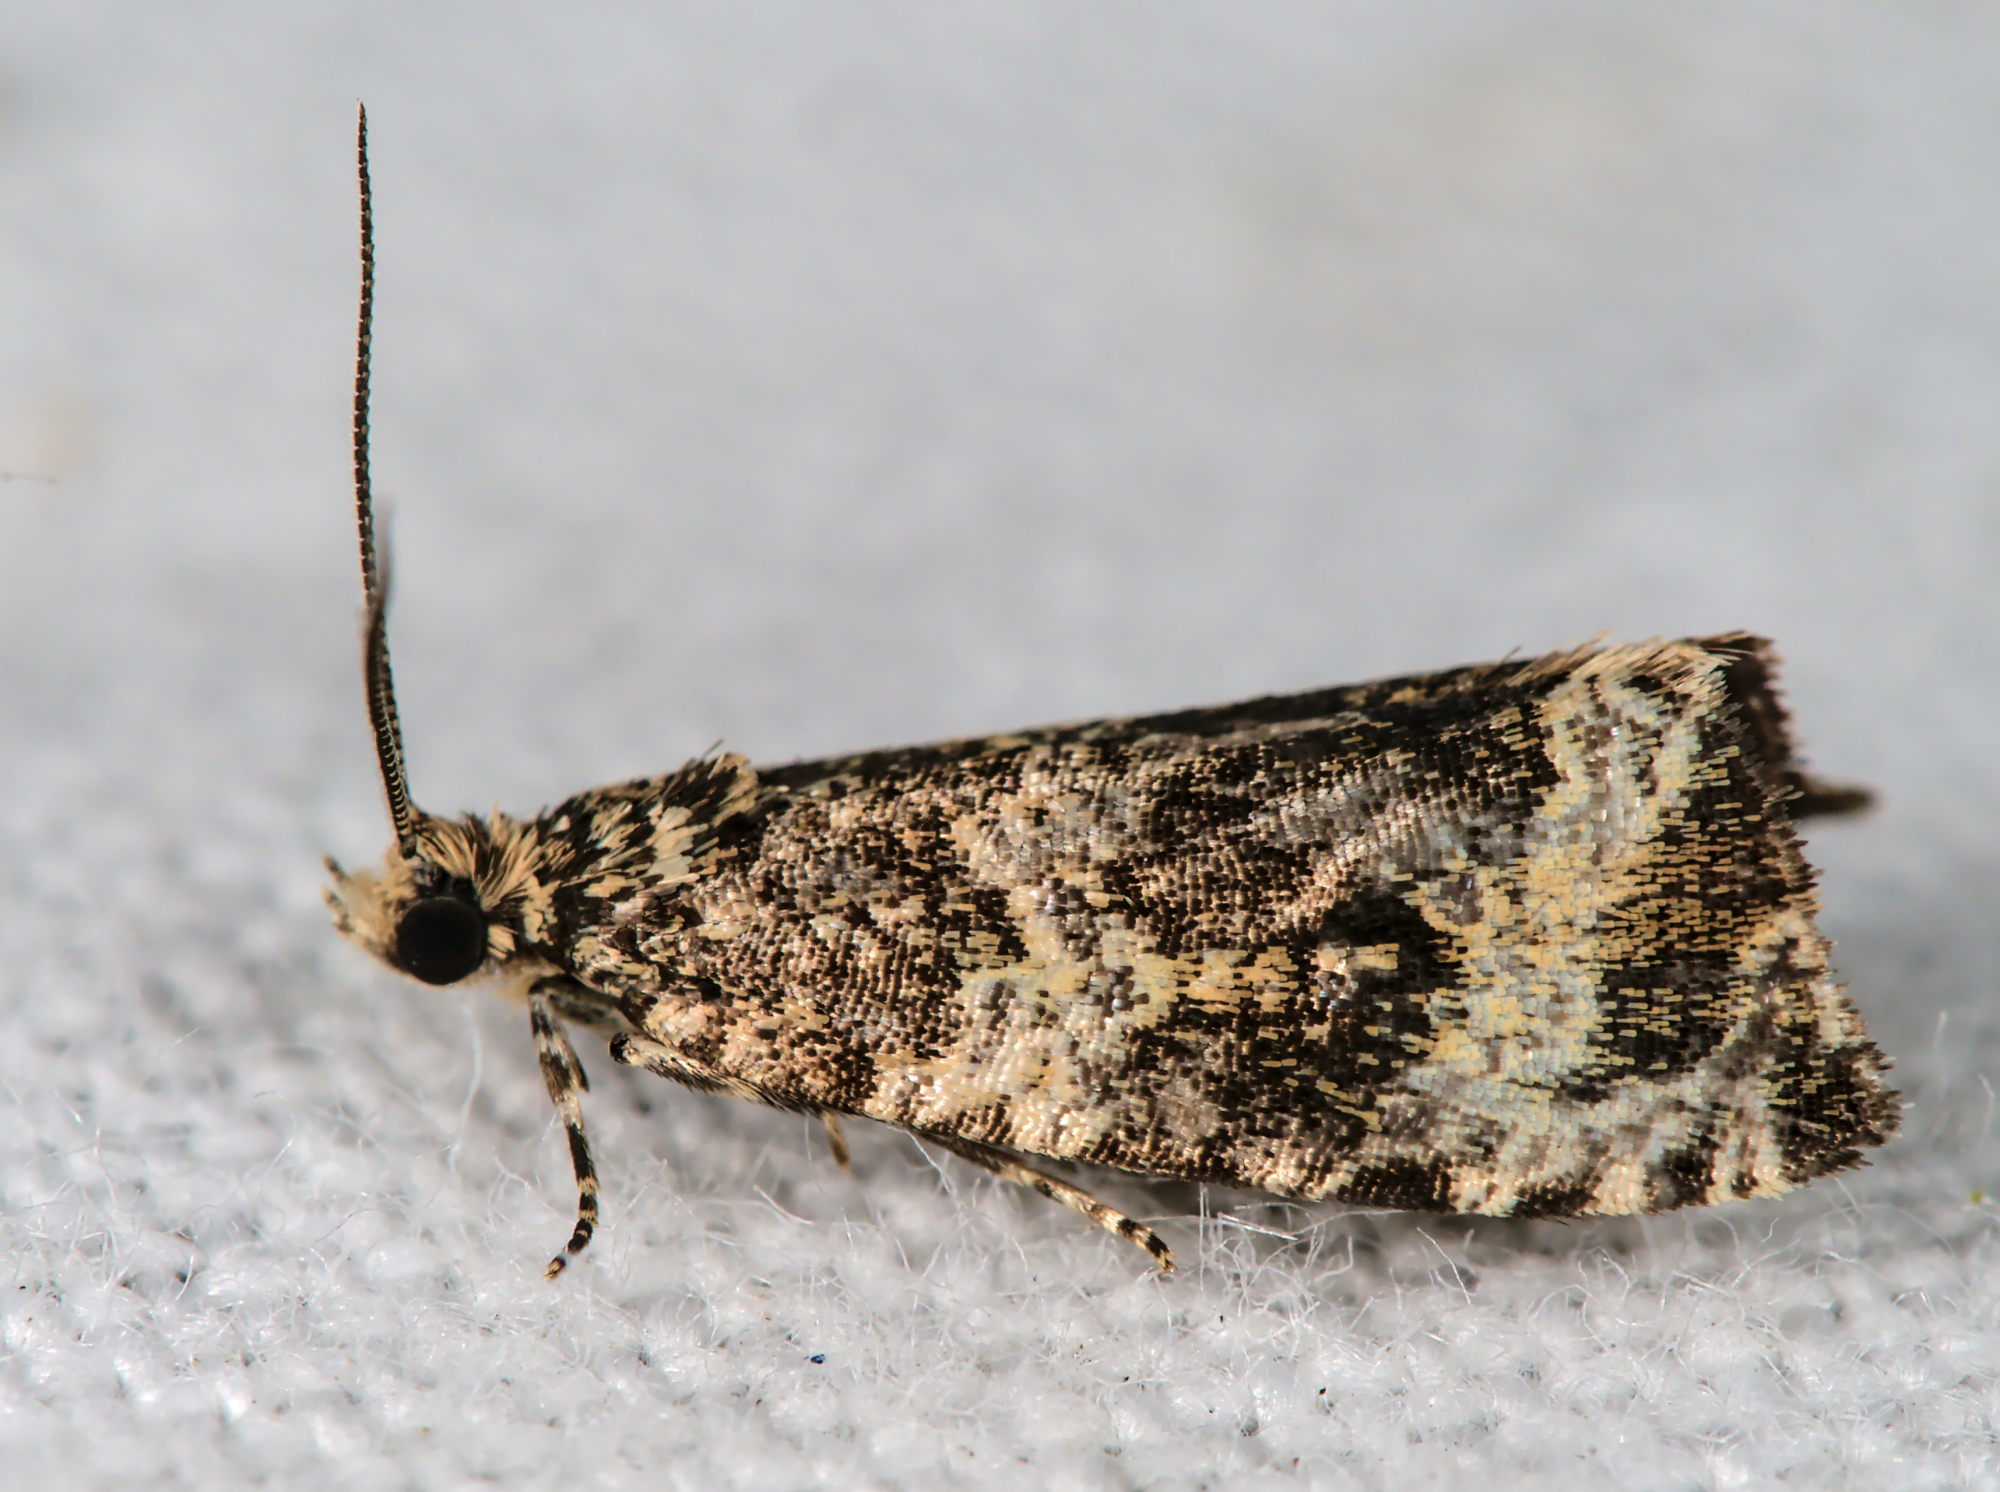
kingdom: Animalia
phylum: Arthropoda
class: Insecta
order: Lepidoptera
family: Tortricidae
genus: Syricoris
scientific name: Syricoris lacunana
